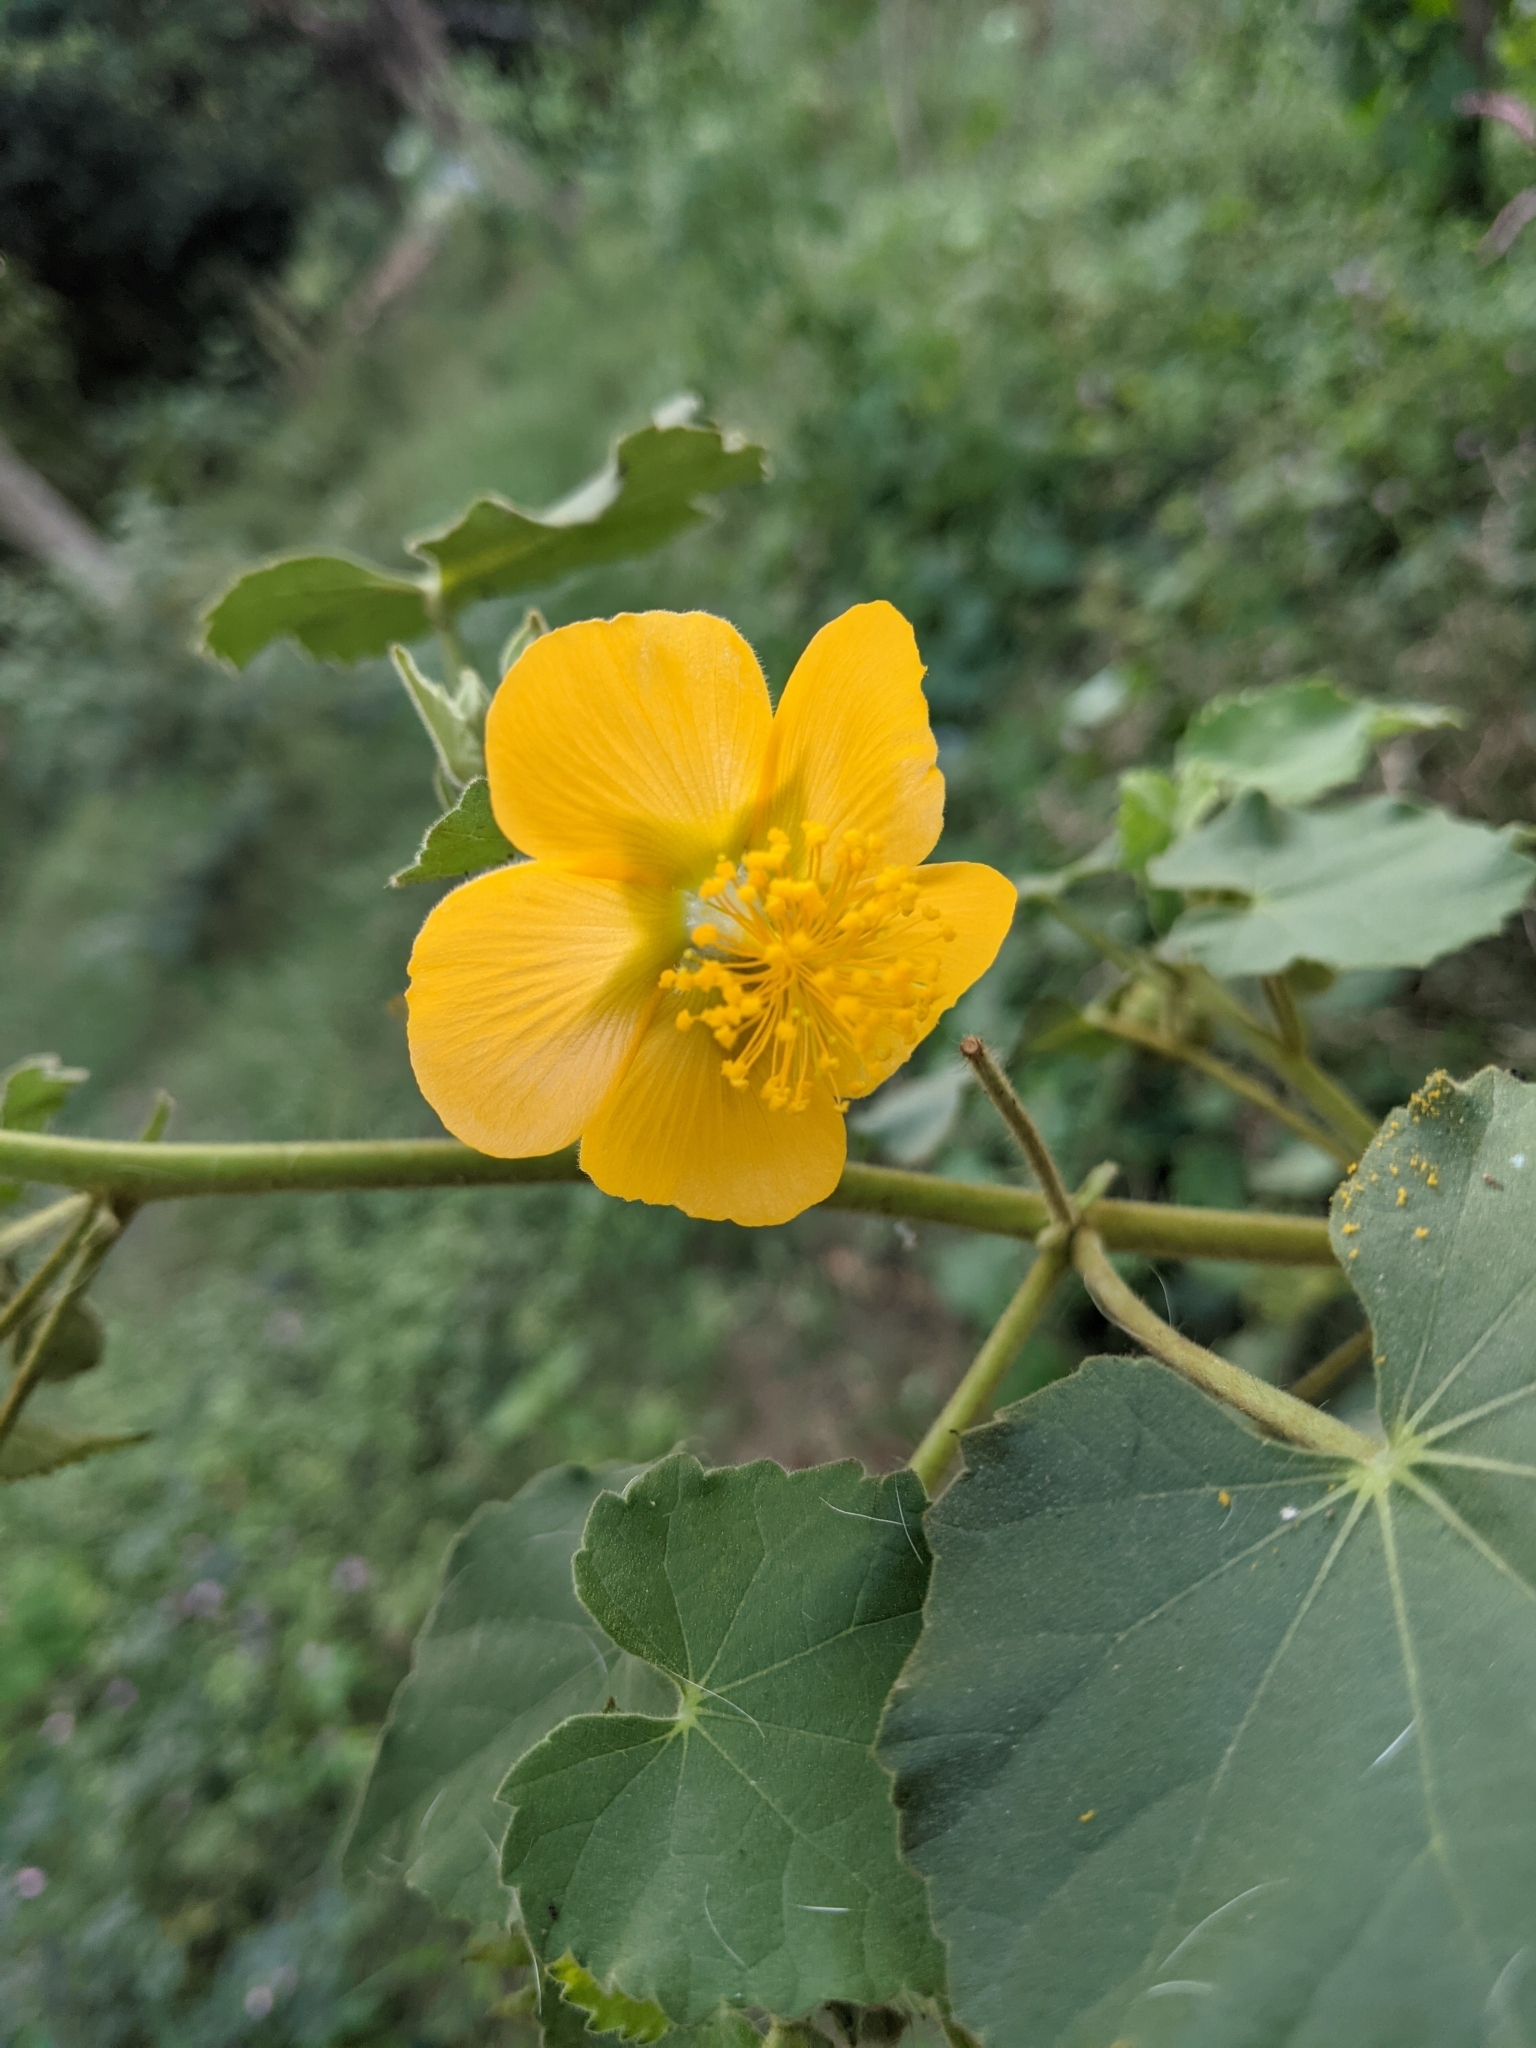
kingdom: Plantae
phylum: Tracheophyta
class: Magnoliopsida
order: Malvales
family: Malvaceae
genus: Abutilon
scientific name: Abutilon hirtum
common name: Florida keys indian mallow
